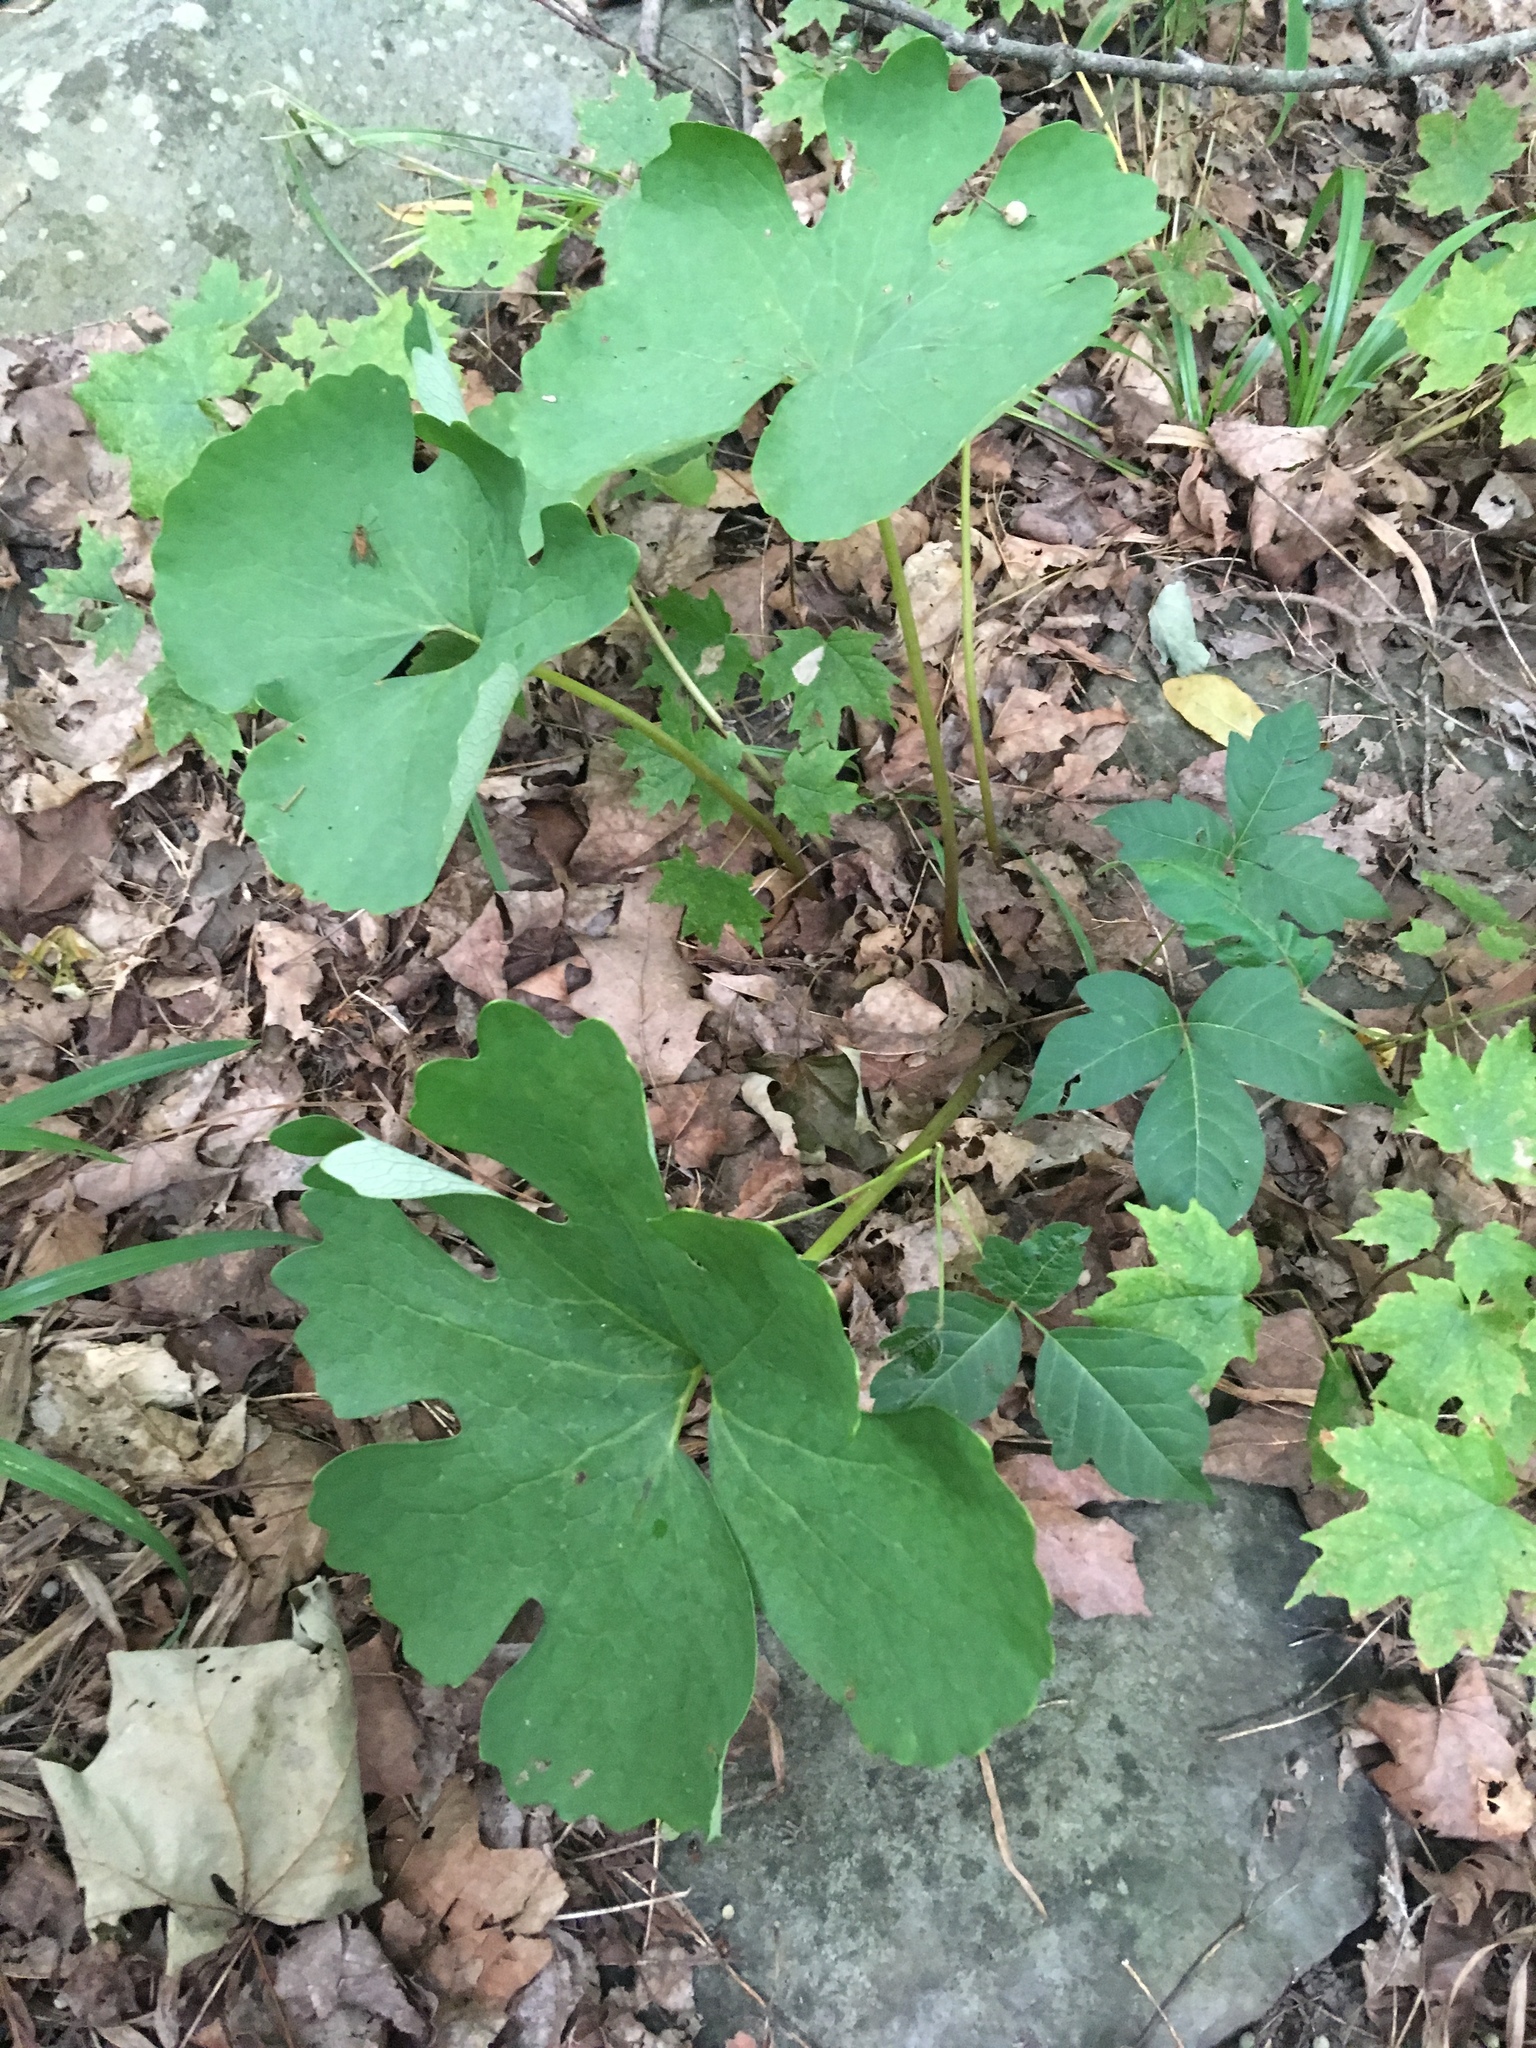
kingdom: Plantae
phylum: Tracheophyta
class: Magnoliopsida
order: Ranunculales
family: Papaveraceae
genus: Sanguinaria
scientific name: Sanguinaria canadensis
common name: Bloodroot
